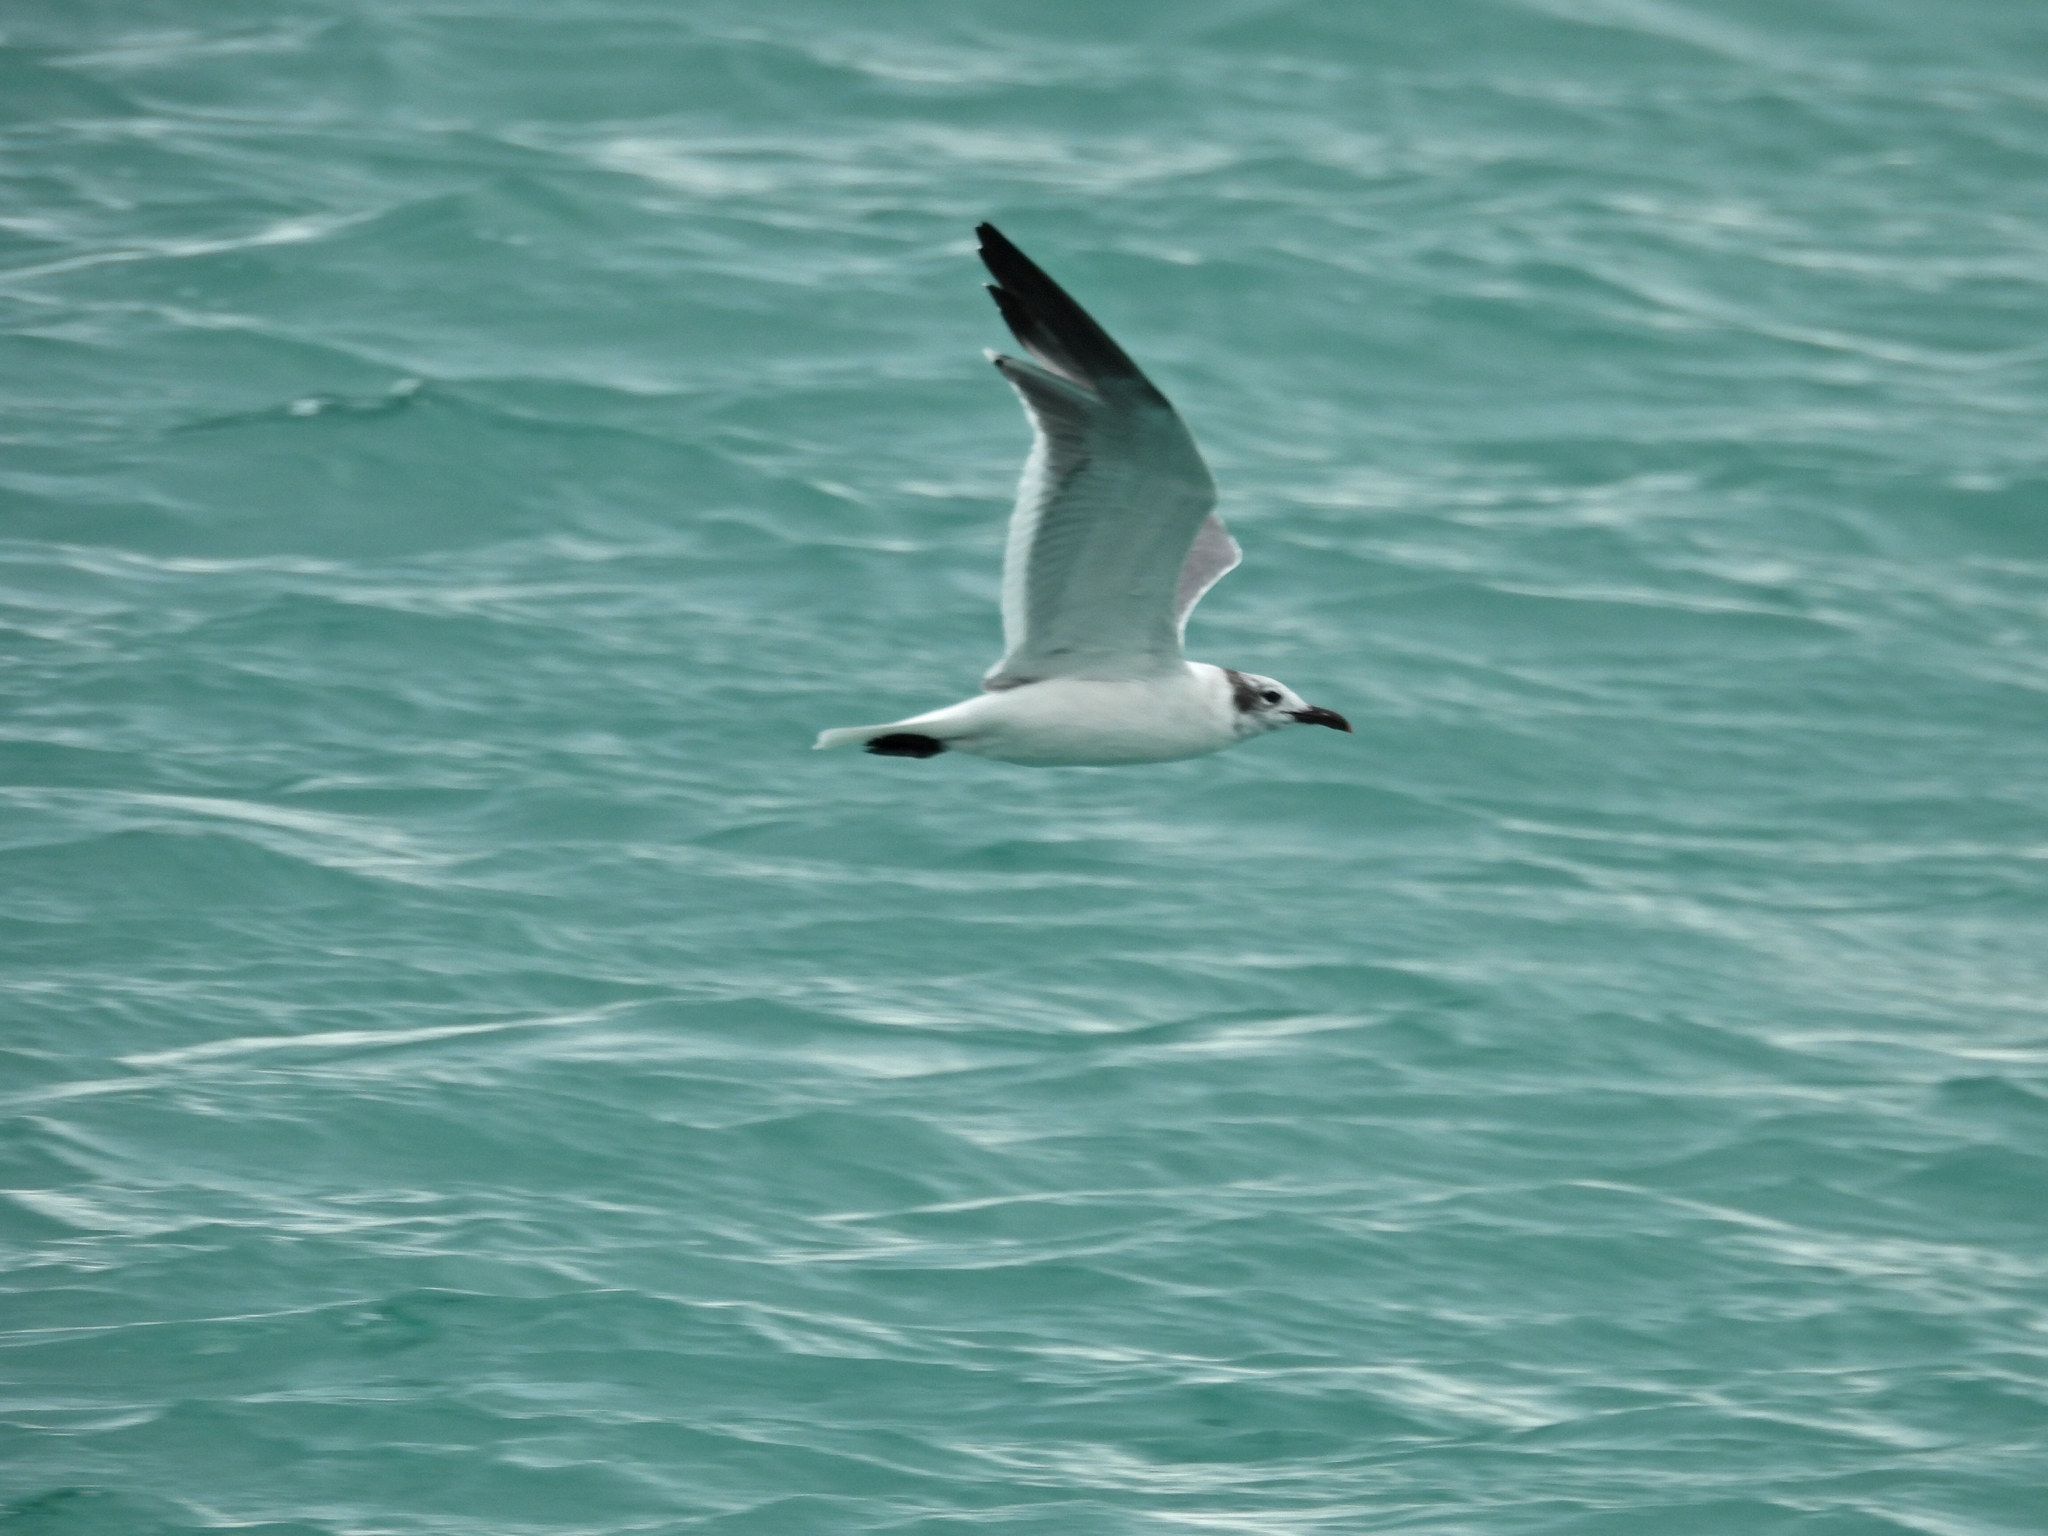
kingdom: Animalia
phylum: Chordata
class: Aves
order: Charadriiformes
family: Laridae
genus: Leucophaeus
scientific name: Leucophaeus atricilla
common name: Laughing gull
